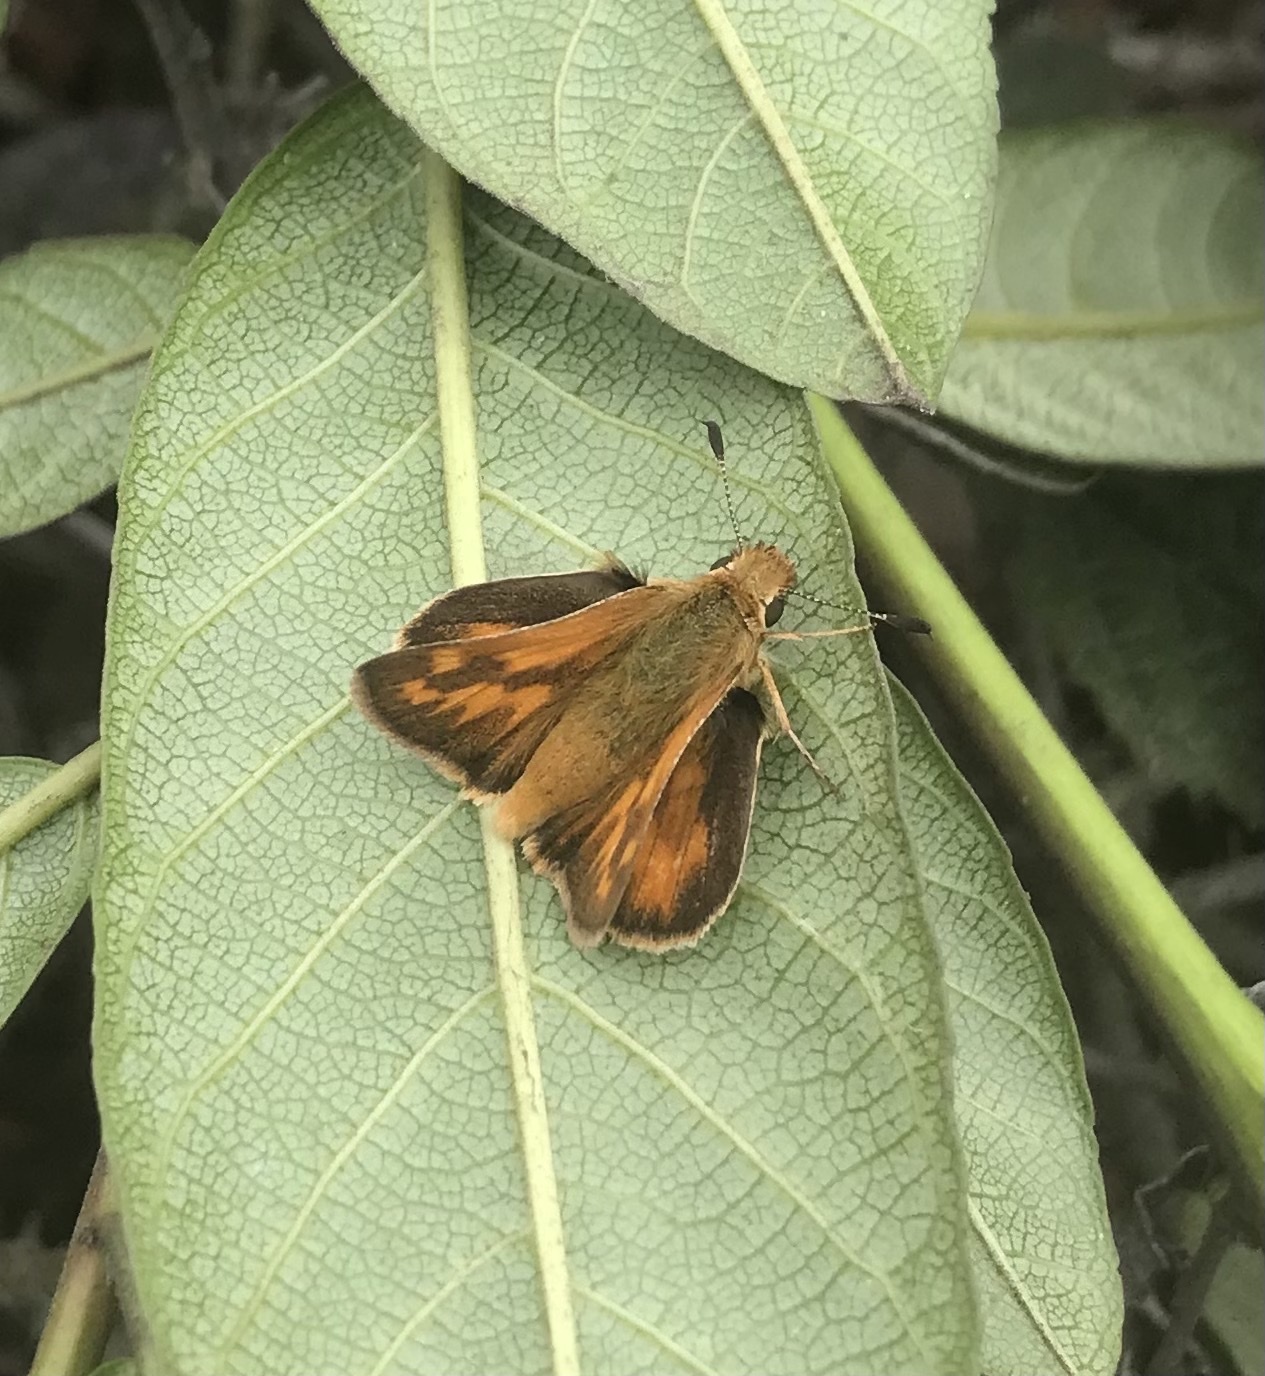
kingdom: Animalia
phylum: Arthropoda
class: Insecta
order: Lepidoptera
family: Hesperiidae
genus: Ochlodes
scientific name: Ochlodes sylvanoides
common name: Woodland skipper
